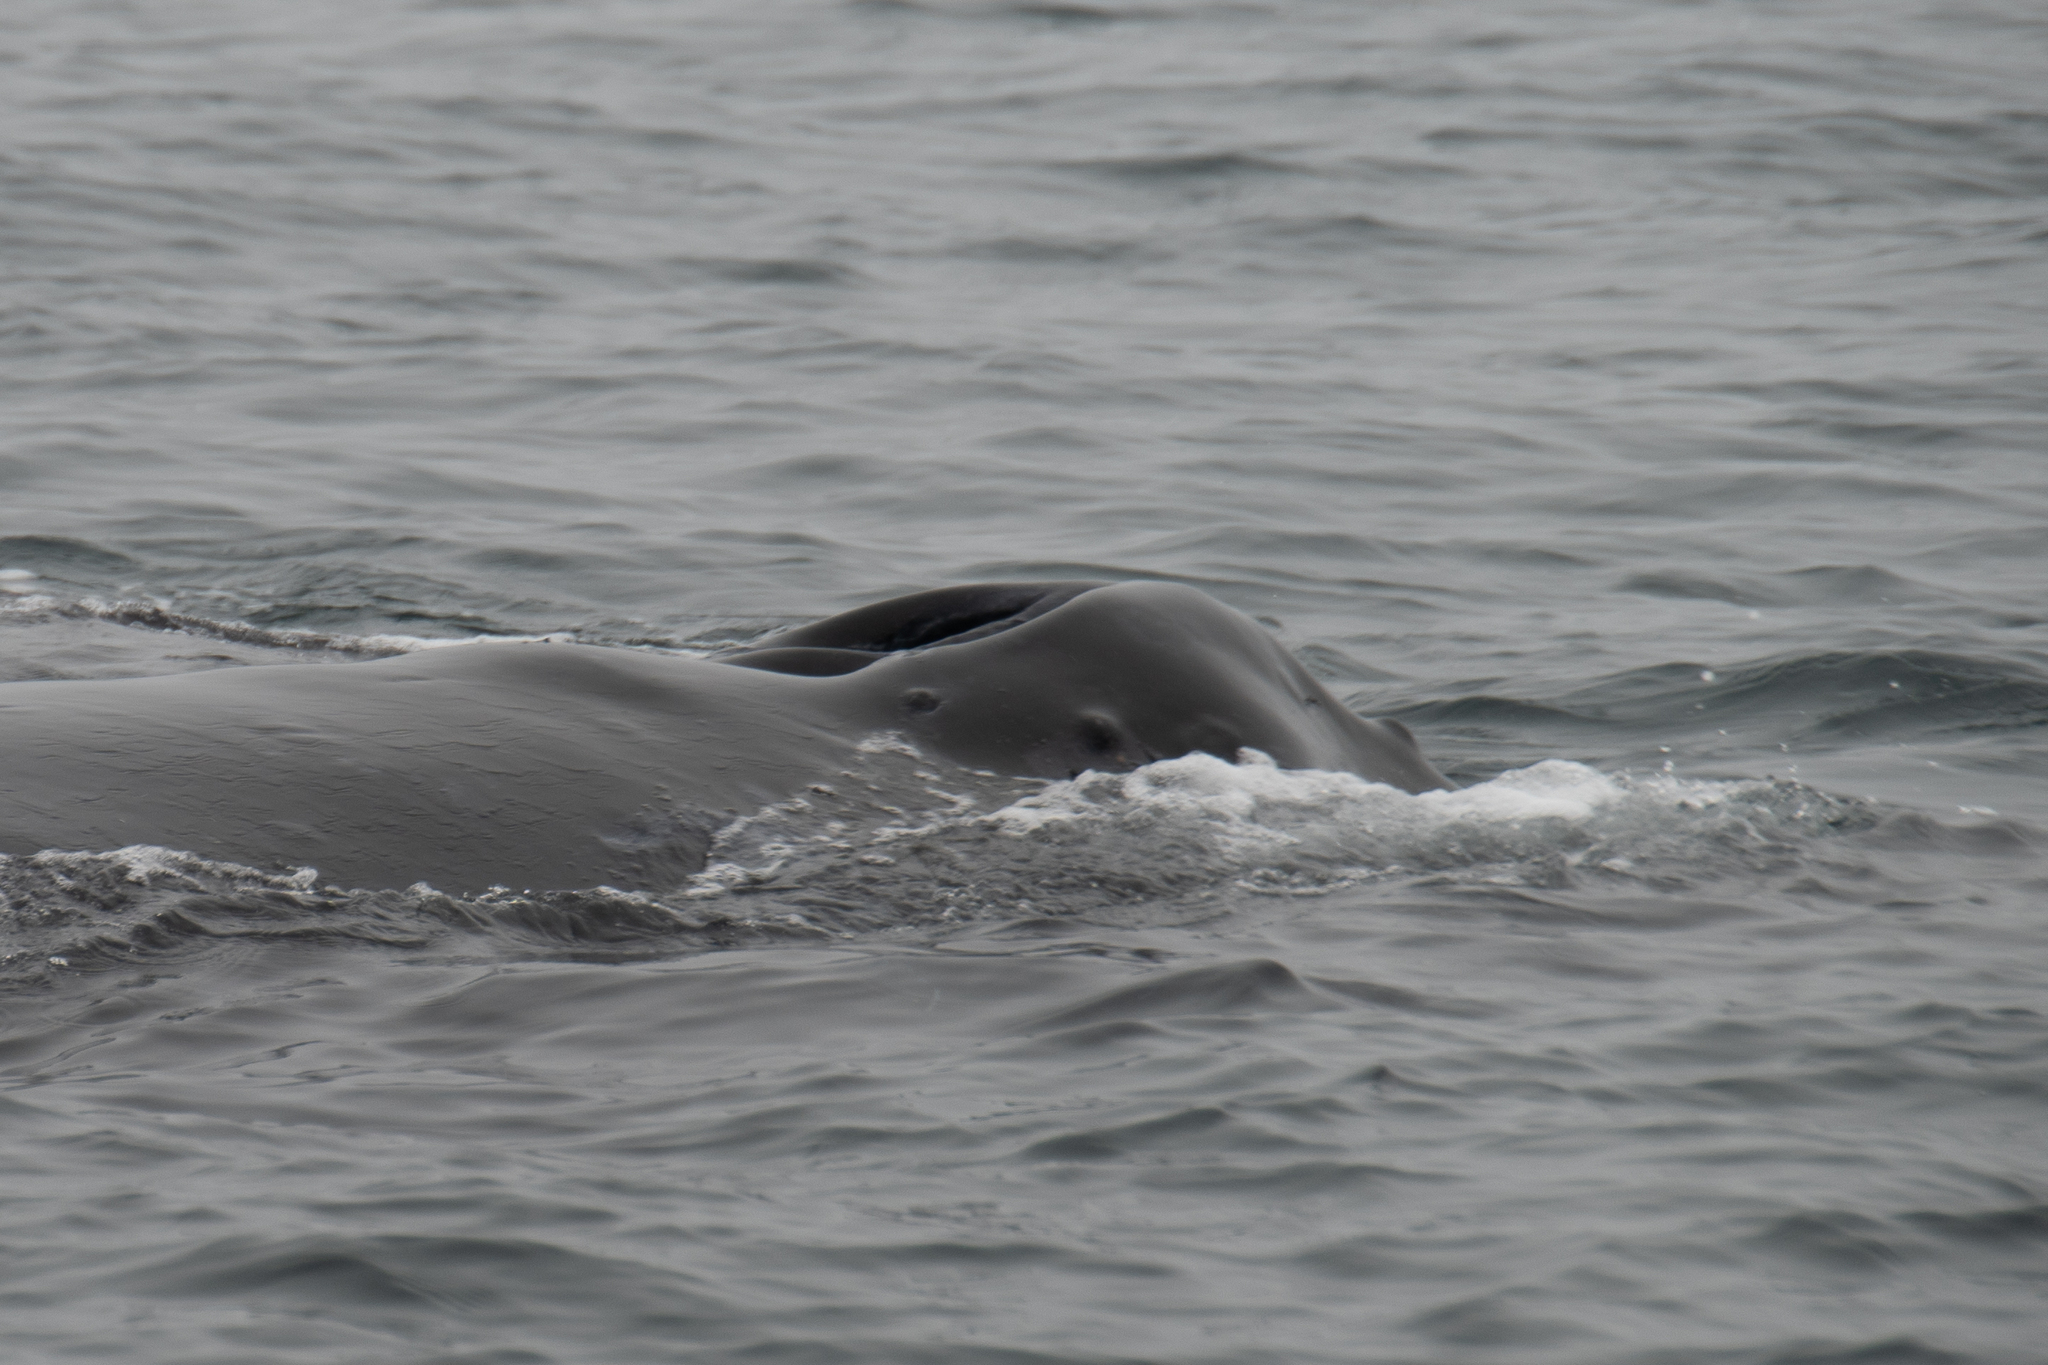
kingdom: Animalia
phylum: Chordata
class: Mammalia
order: Cetacea
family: Balaenopteridae
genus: Megaptera
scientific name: Megaptera novaeangliae
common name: Humpback whale
